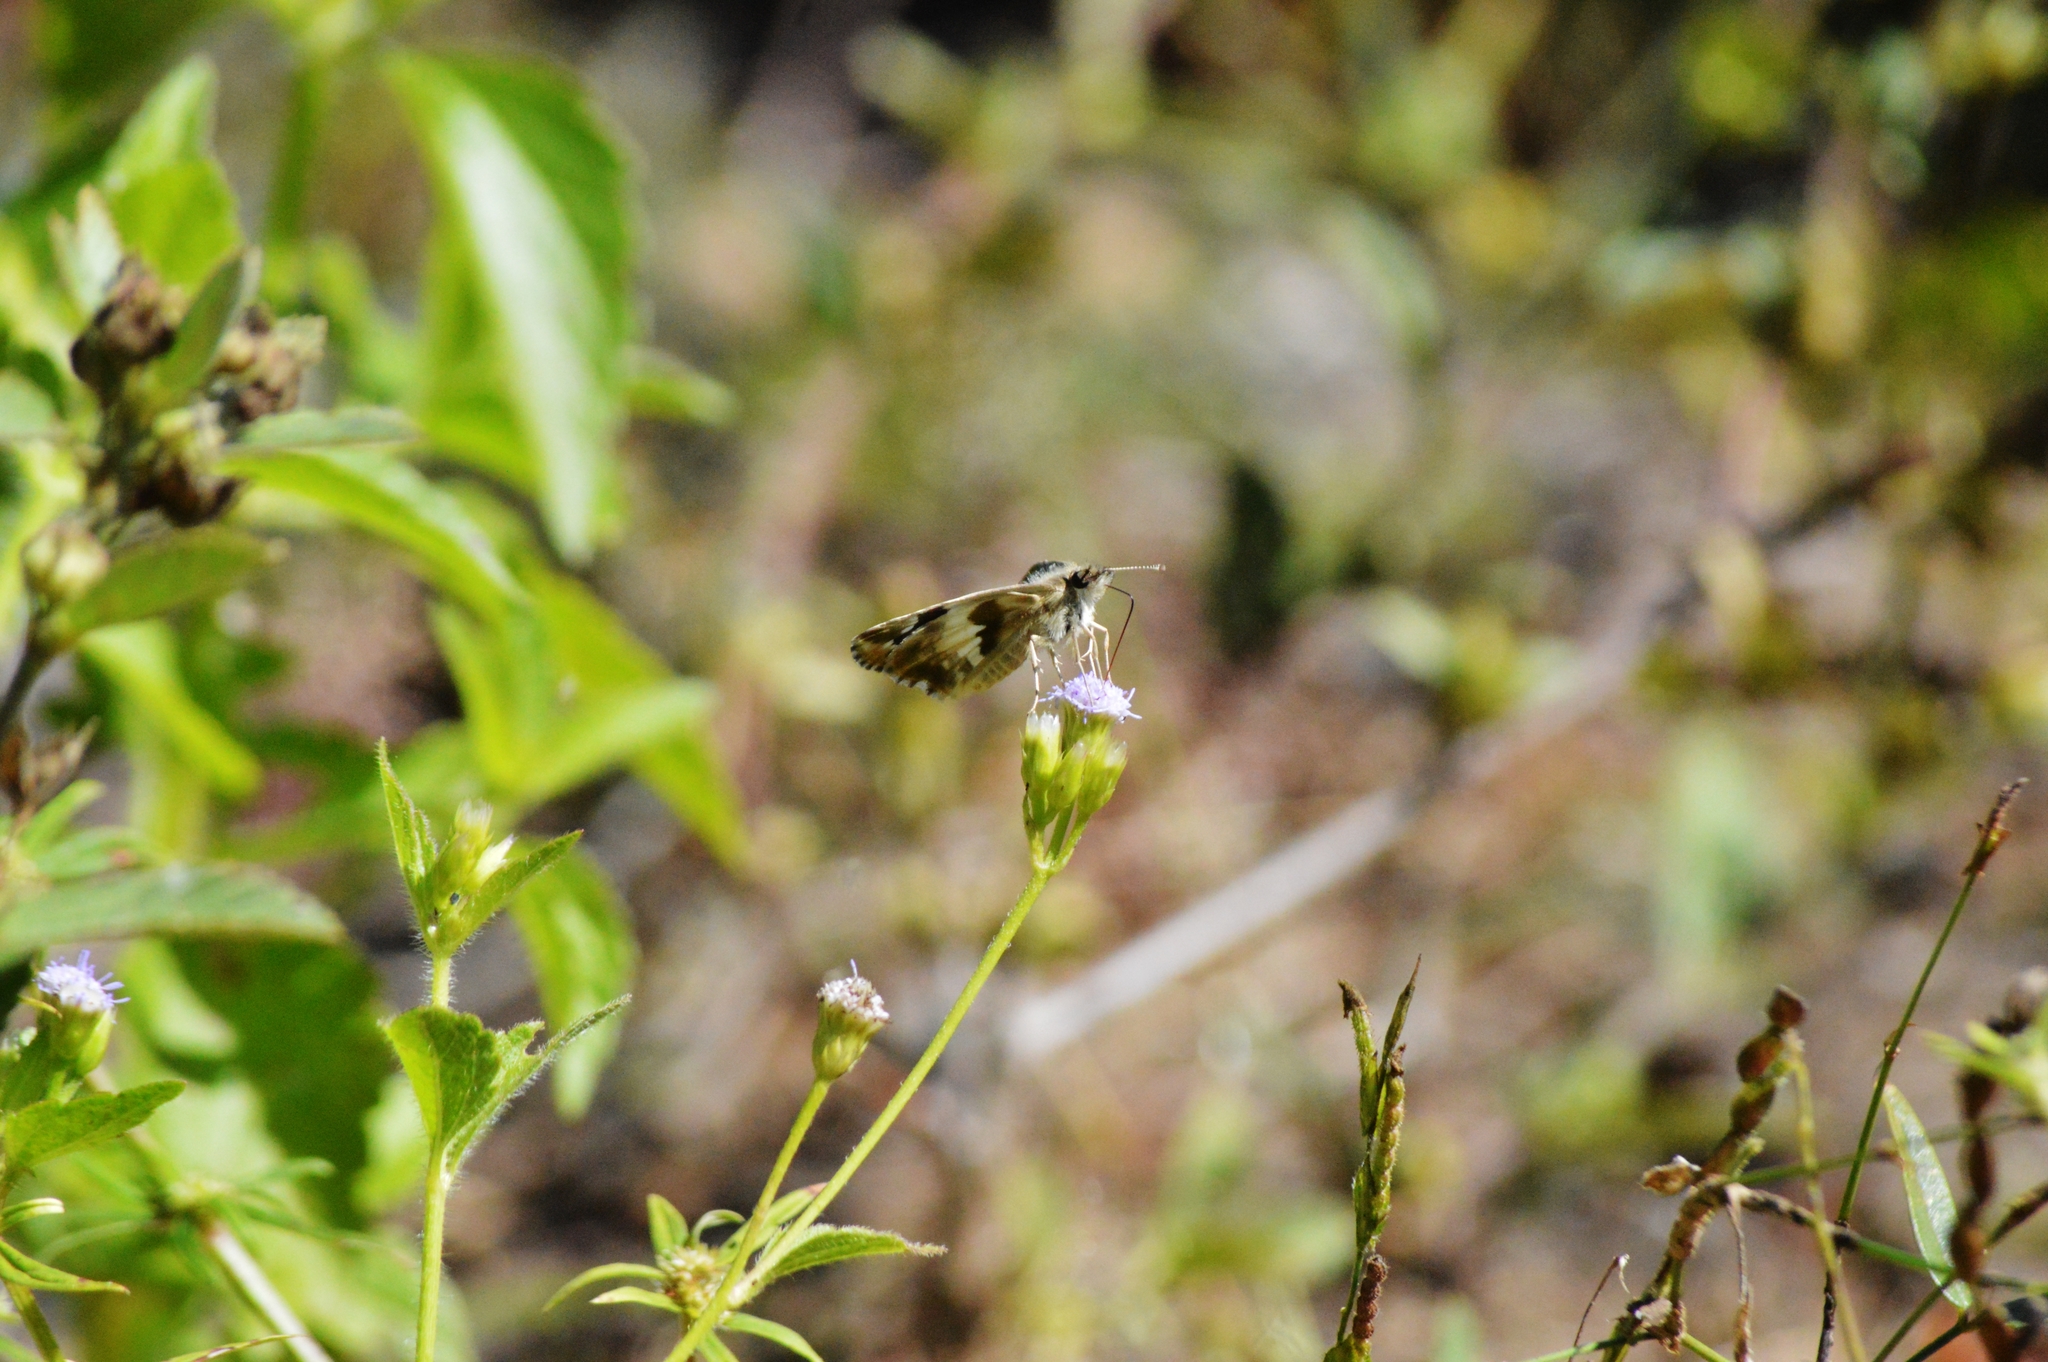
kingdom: Animalia
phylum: Arthropoda
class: Insecta
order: Lepidoptera
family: Hesperiidae
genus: Heliopyrgus
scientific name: Heliopyrgus domicella
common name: Erichson's white skipper
